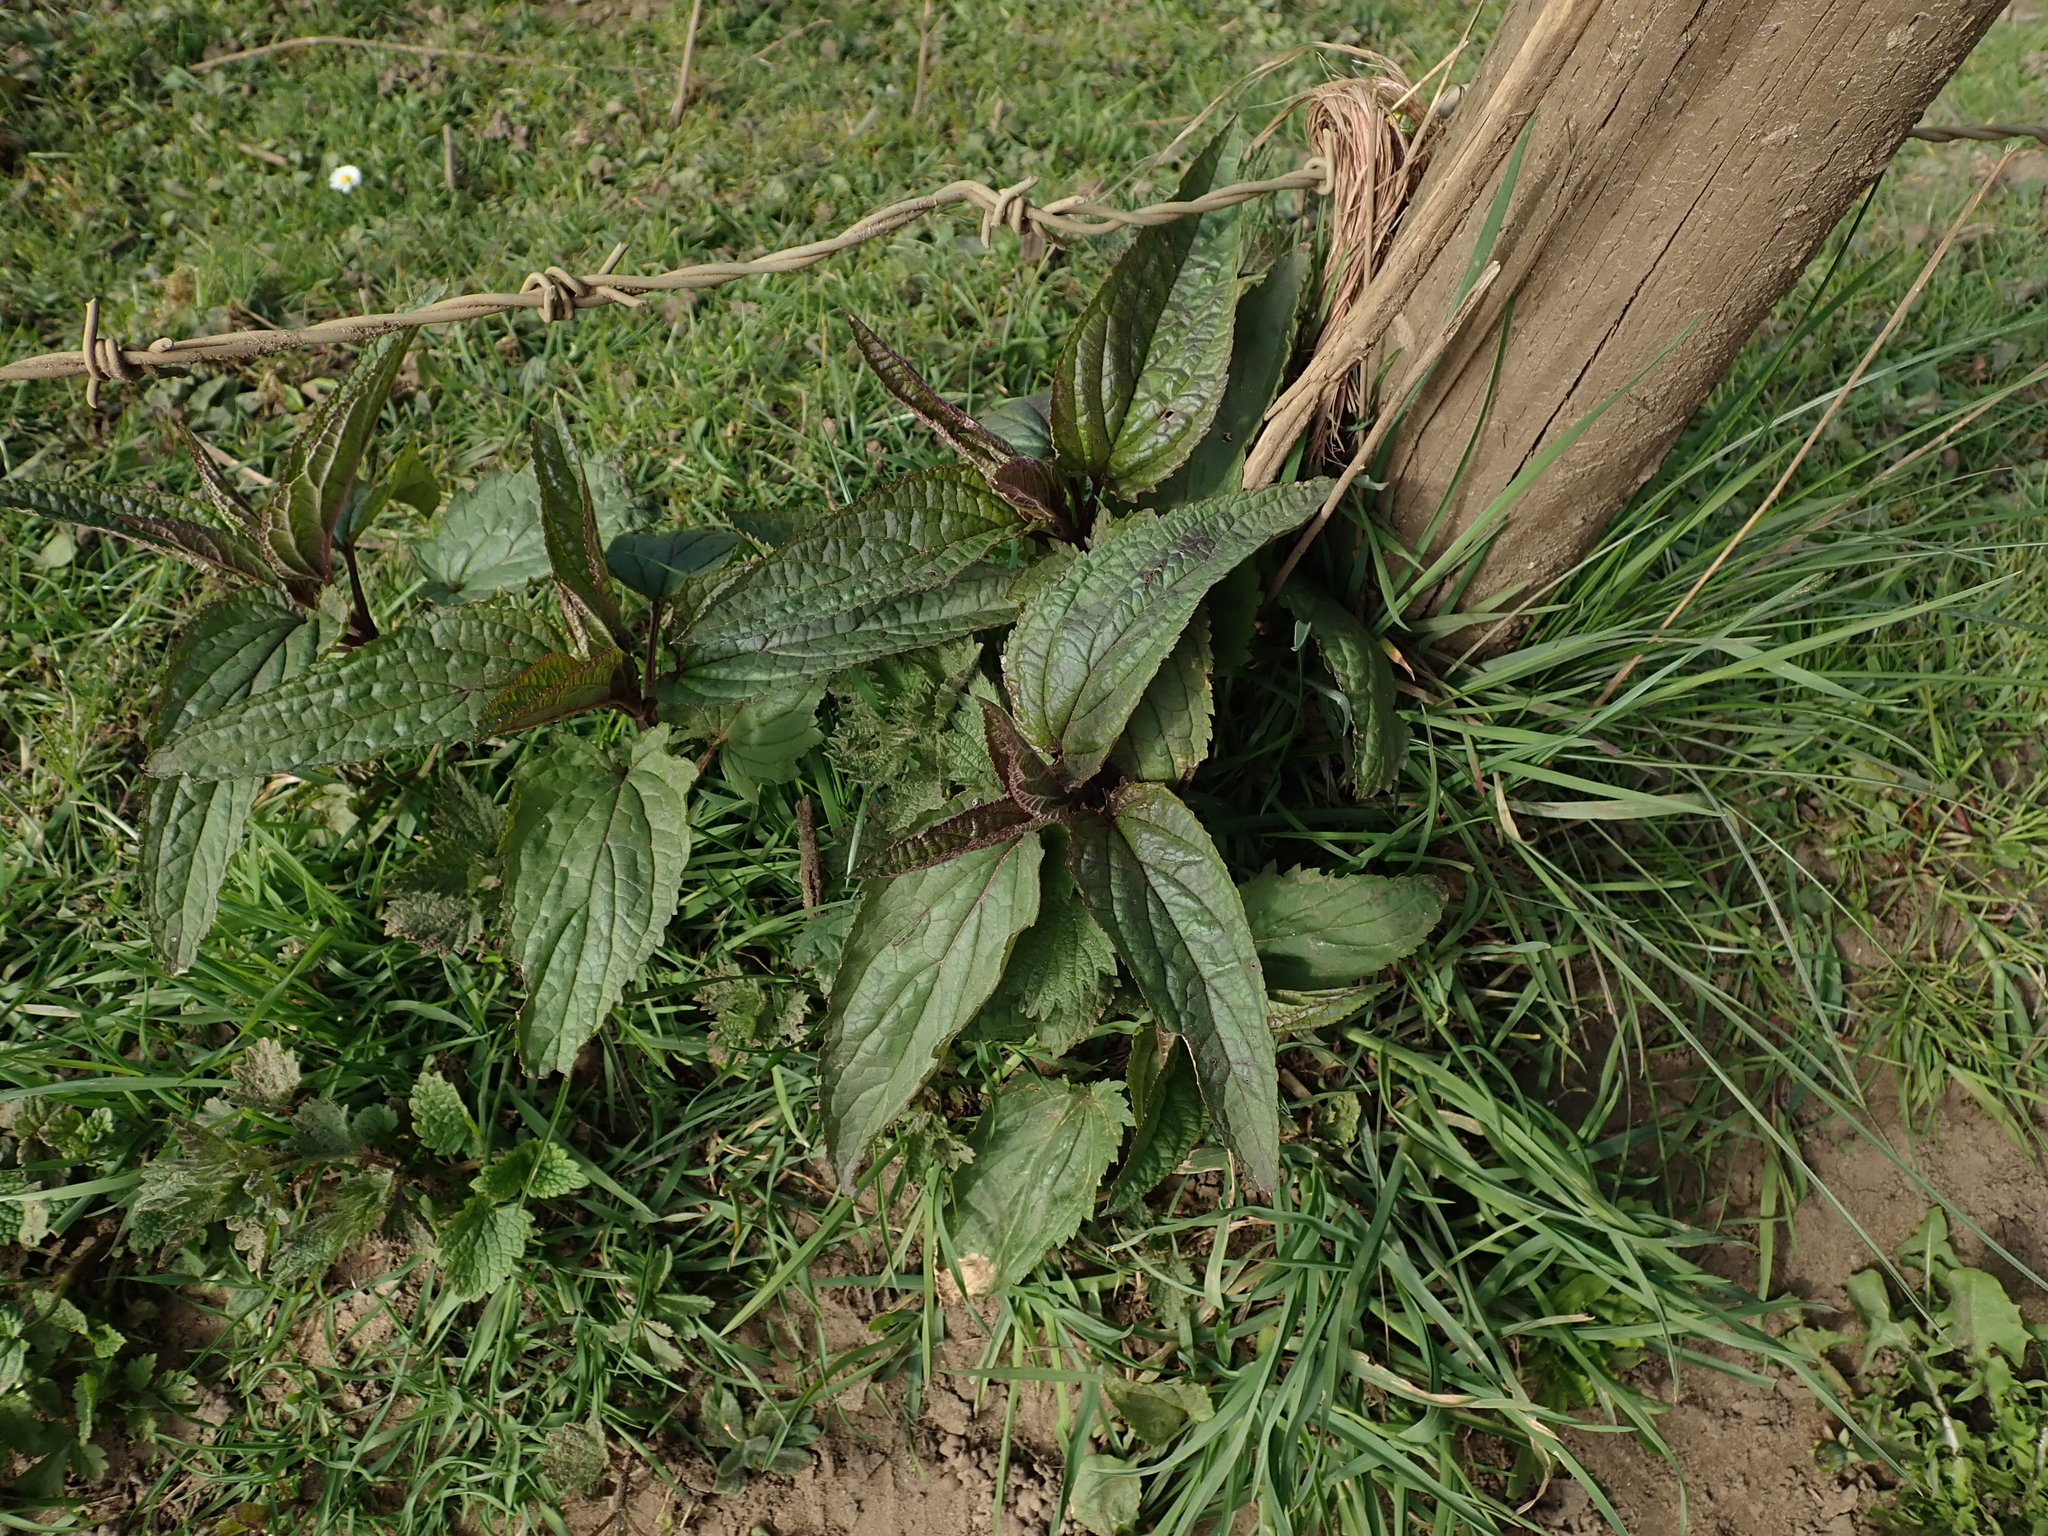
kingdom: Plantae
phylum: Tracheophyta
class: Magnoliopsida
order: Lamiales
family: Scrophulariaceae
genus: Scrophularia
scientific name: Scrophularia nodosa
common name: Common figwort
